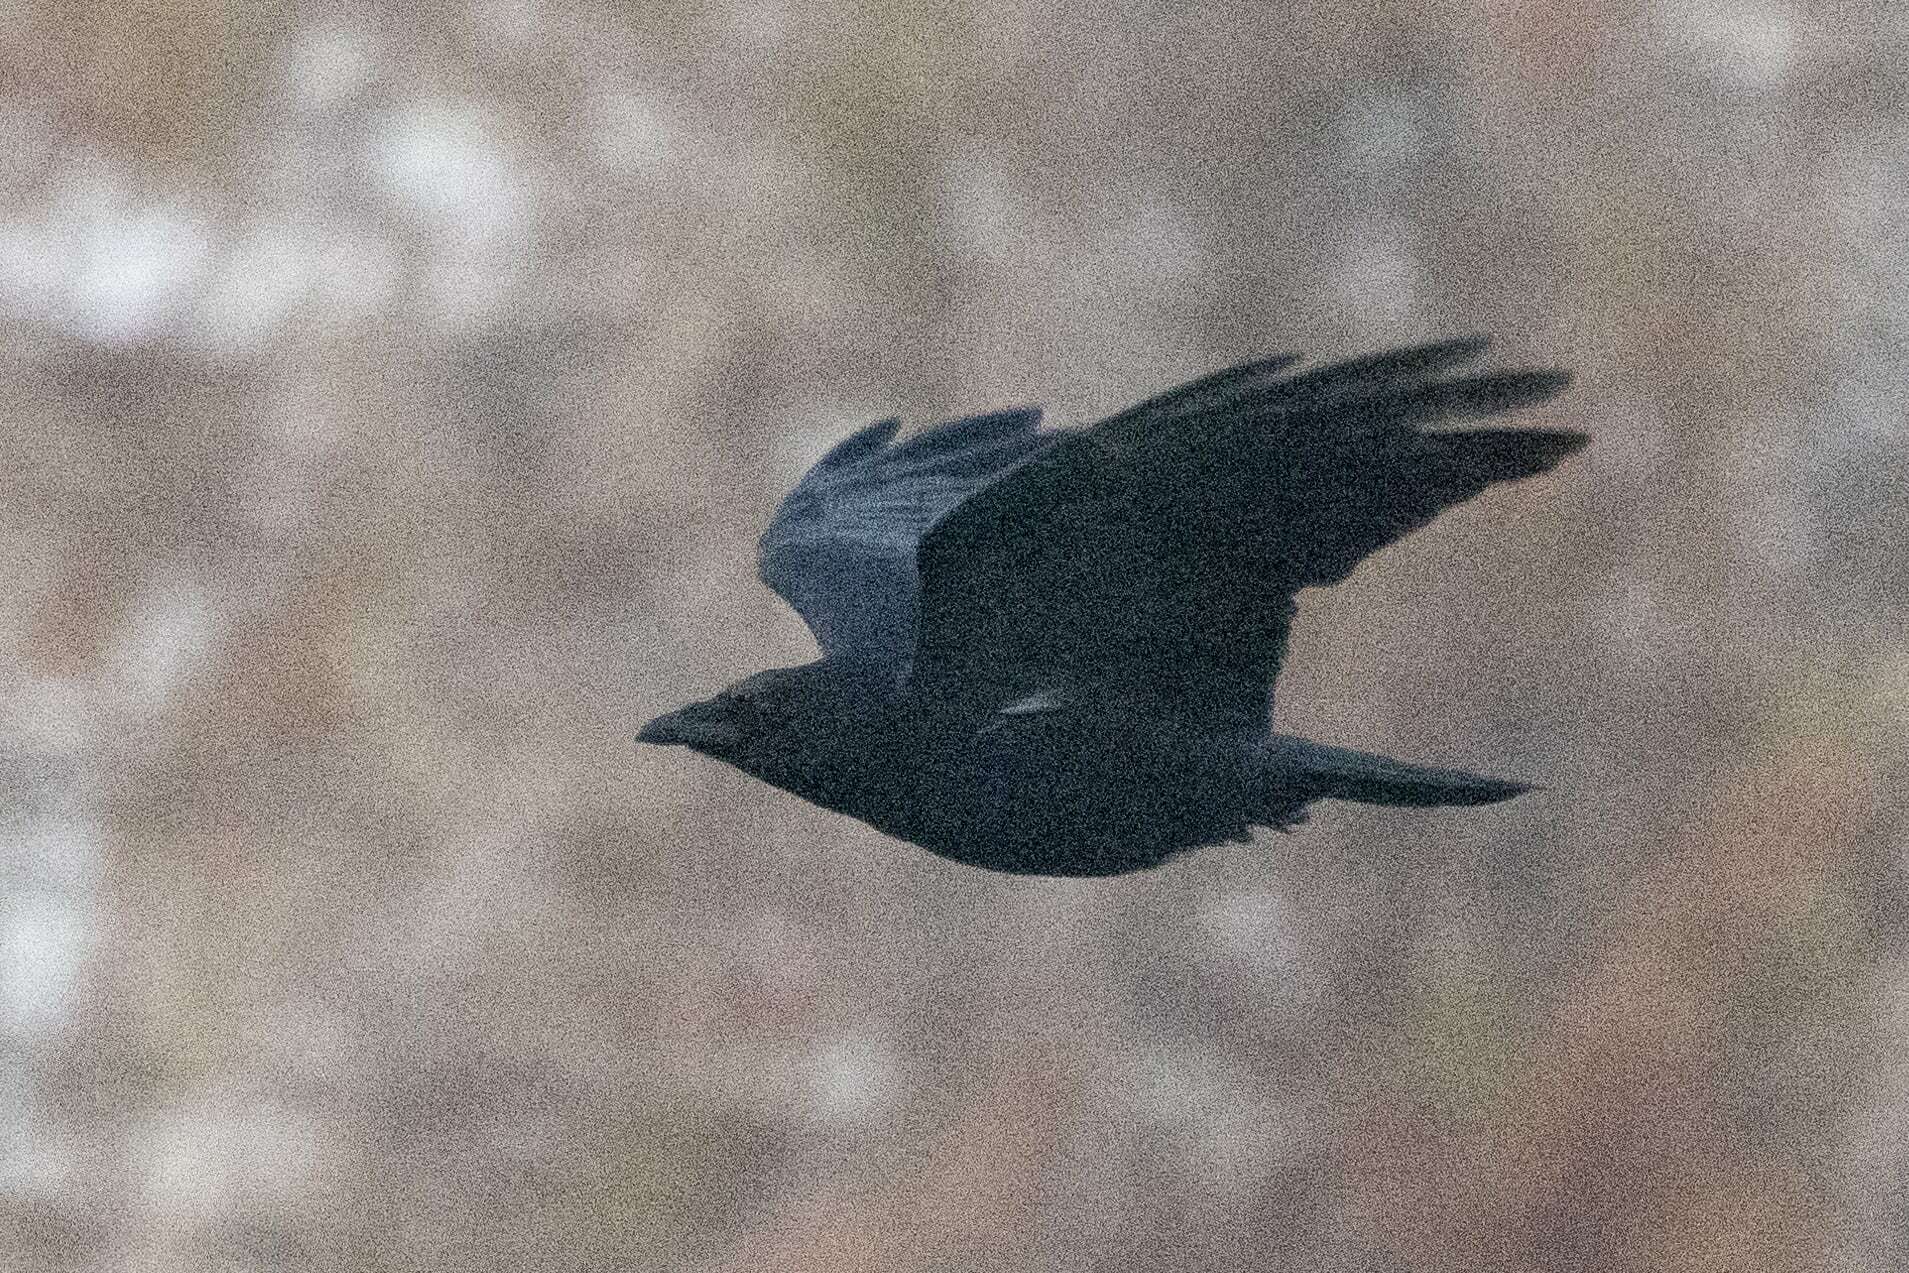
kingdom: Animalia
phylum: Chordata
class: Aves
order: Passeriformes
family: Corvidae
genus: Corvus
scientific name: Corvus corone
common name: Carrion crow
